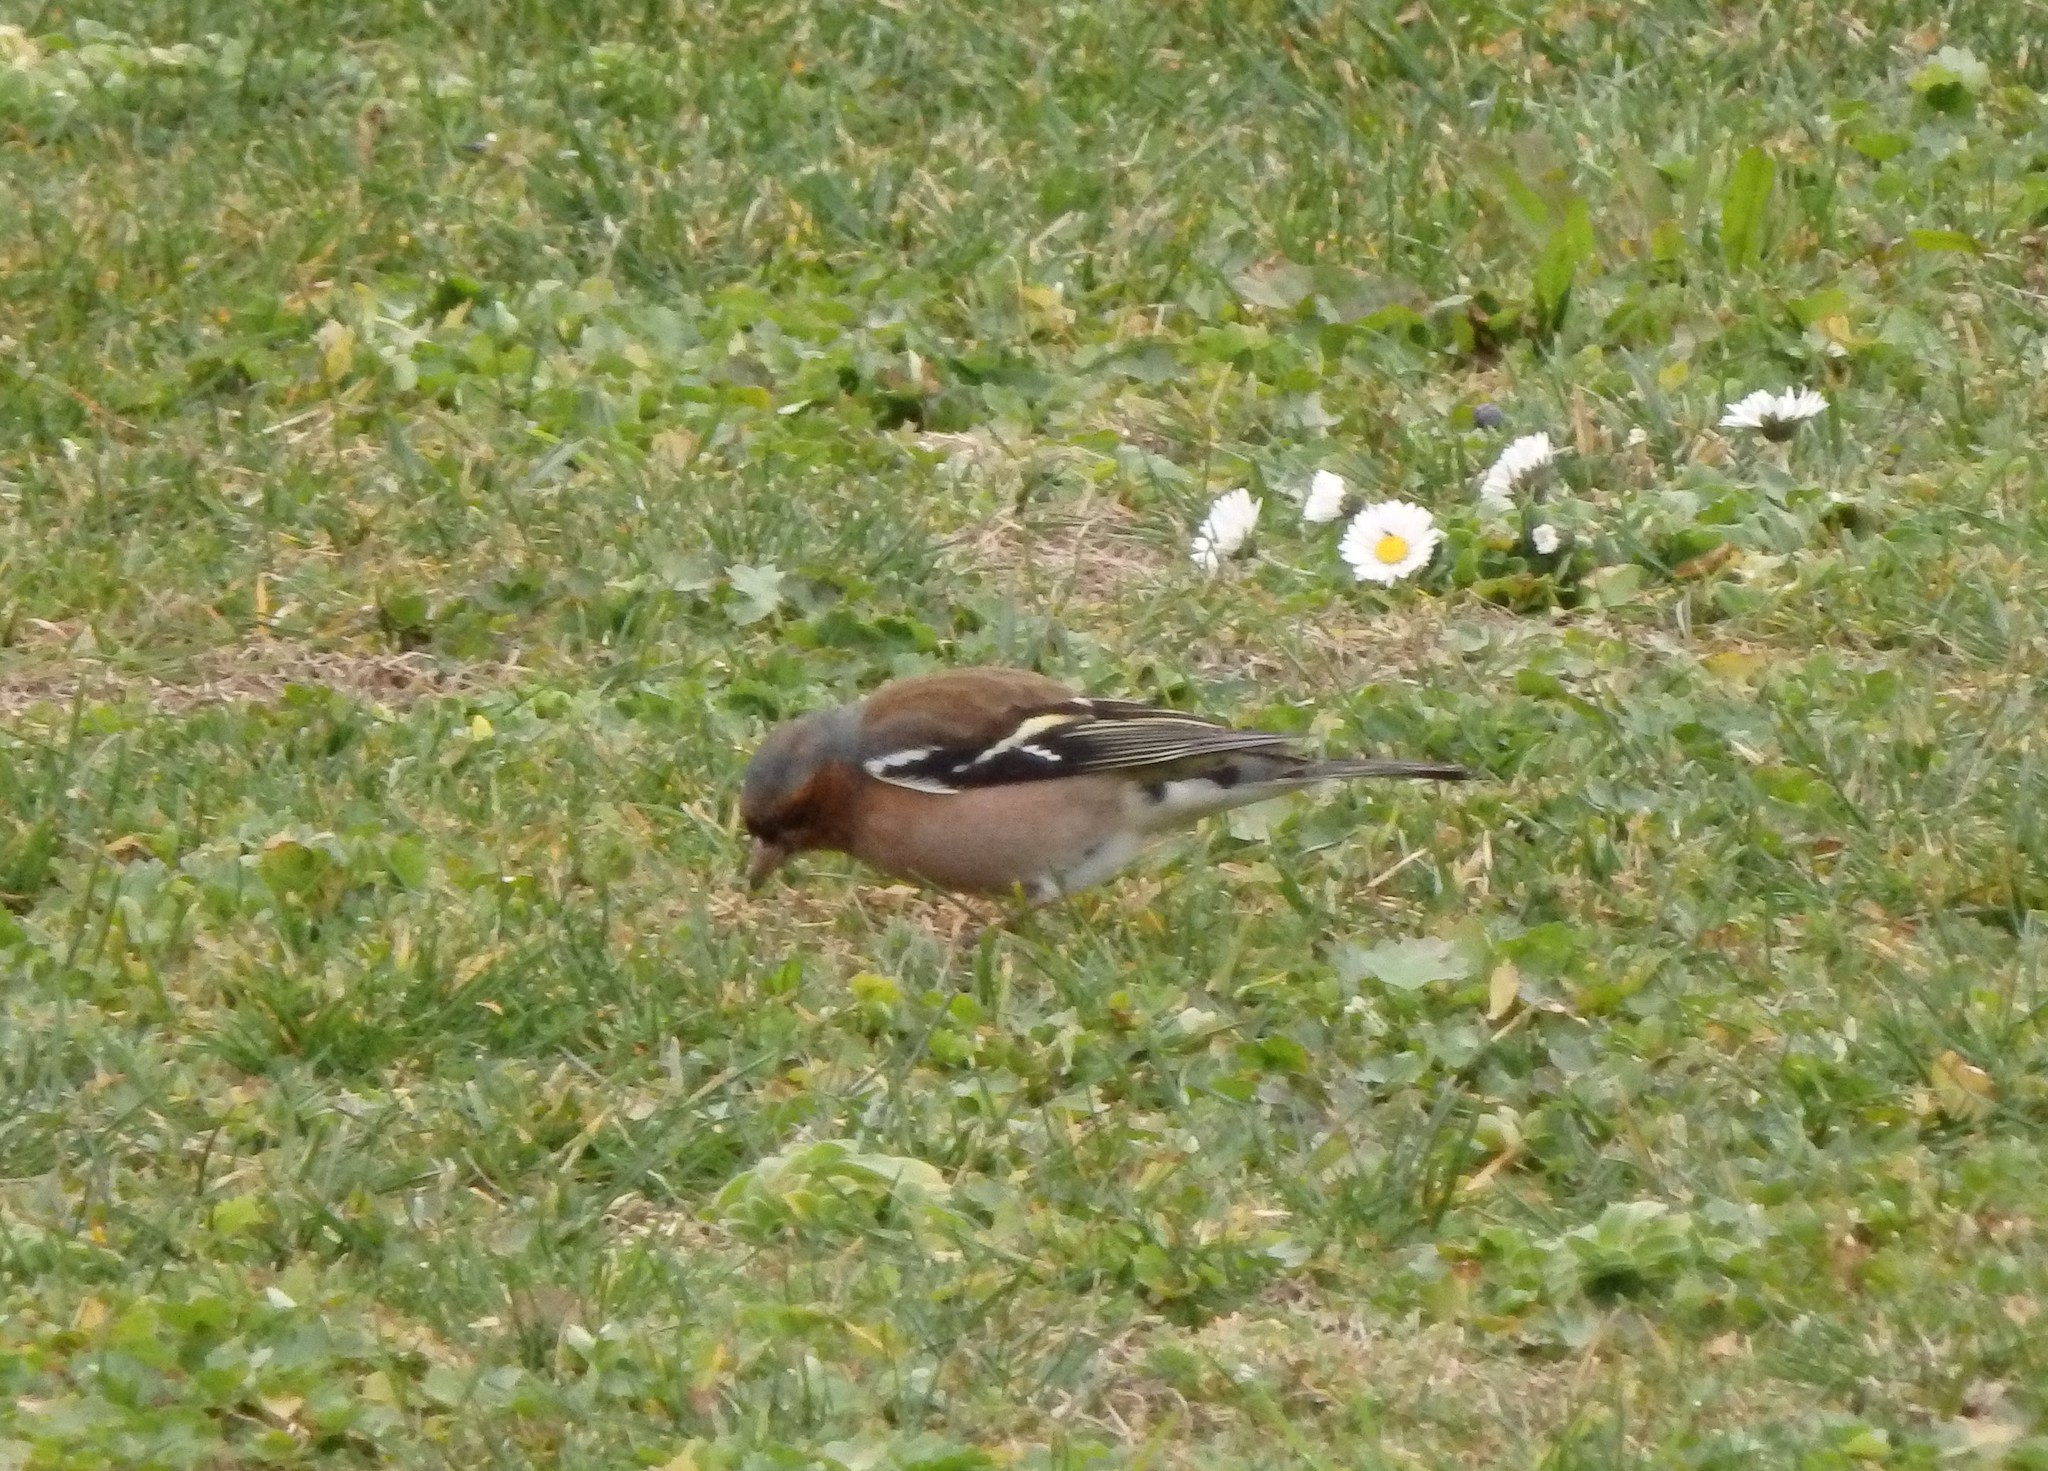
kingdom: Animalia
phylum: Chordata
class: Aves
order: Passeriformes
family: Fringillidae
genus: Fringilla
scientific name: Fringilla coelebs
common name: Common chaffinch
